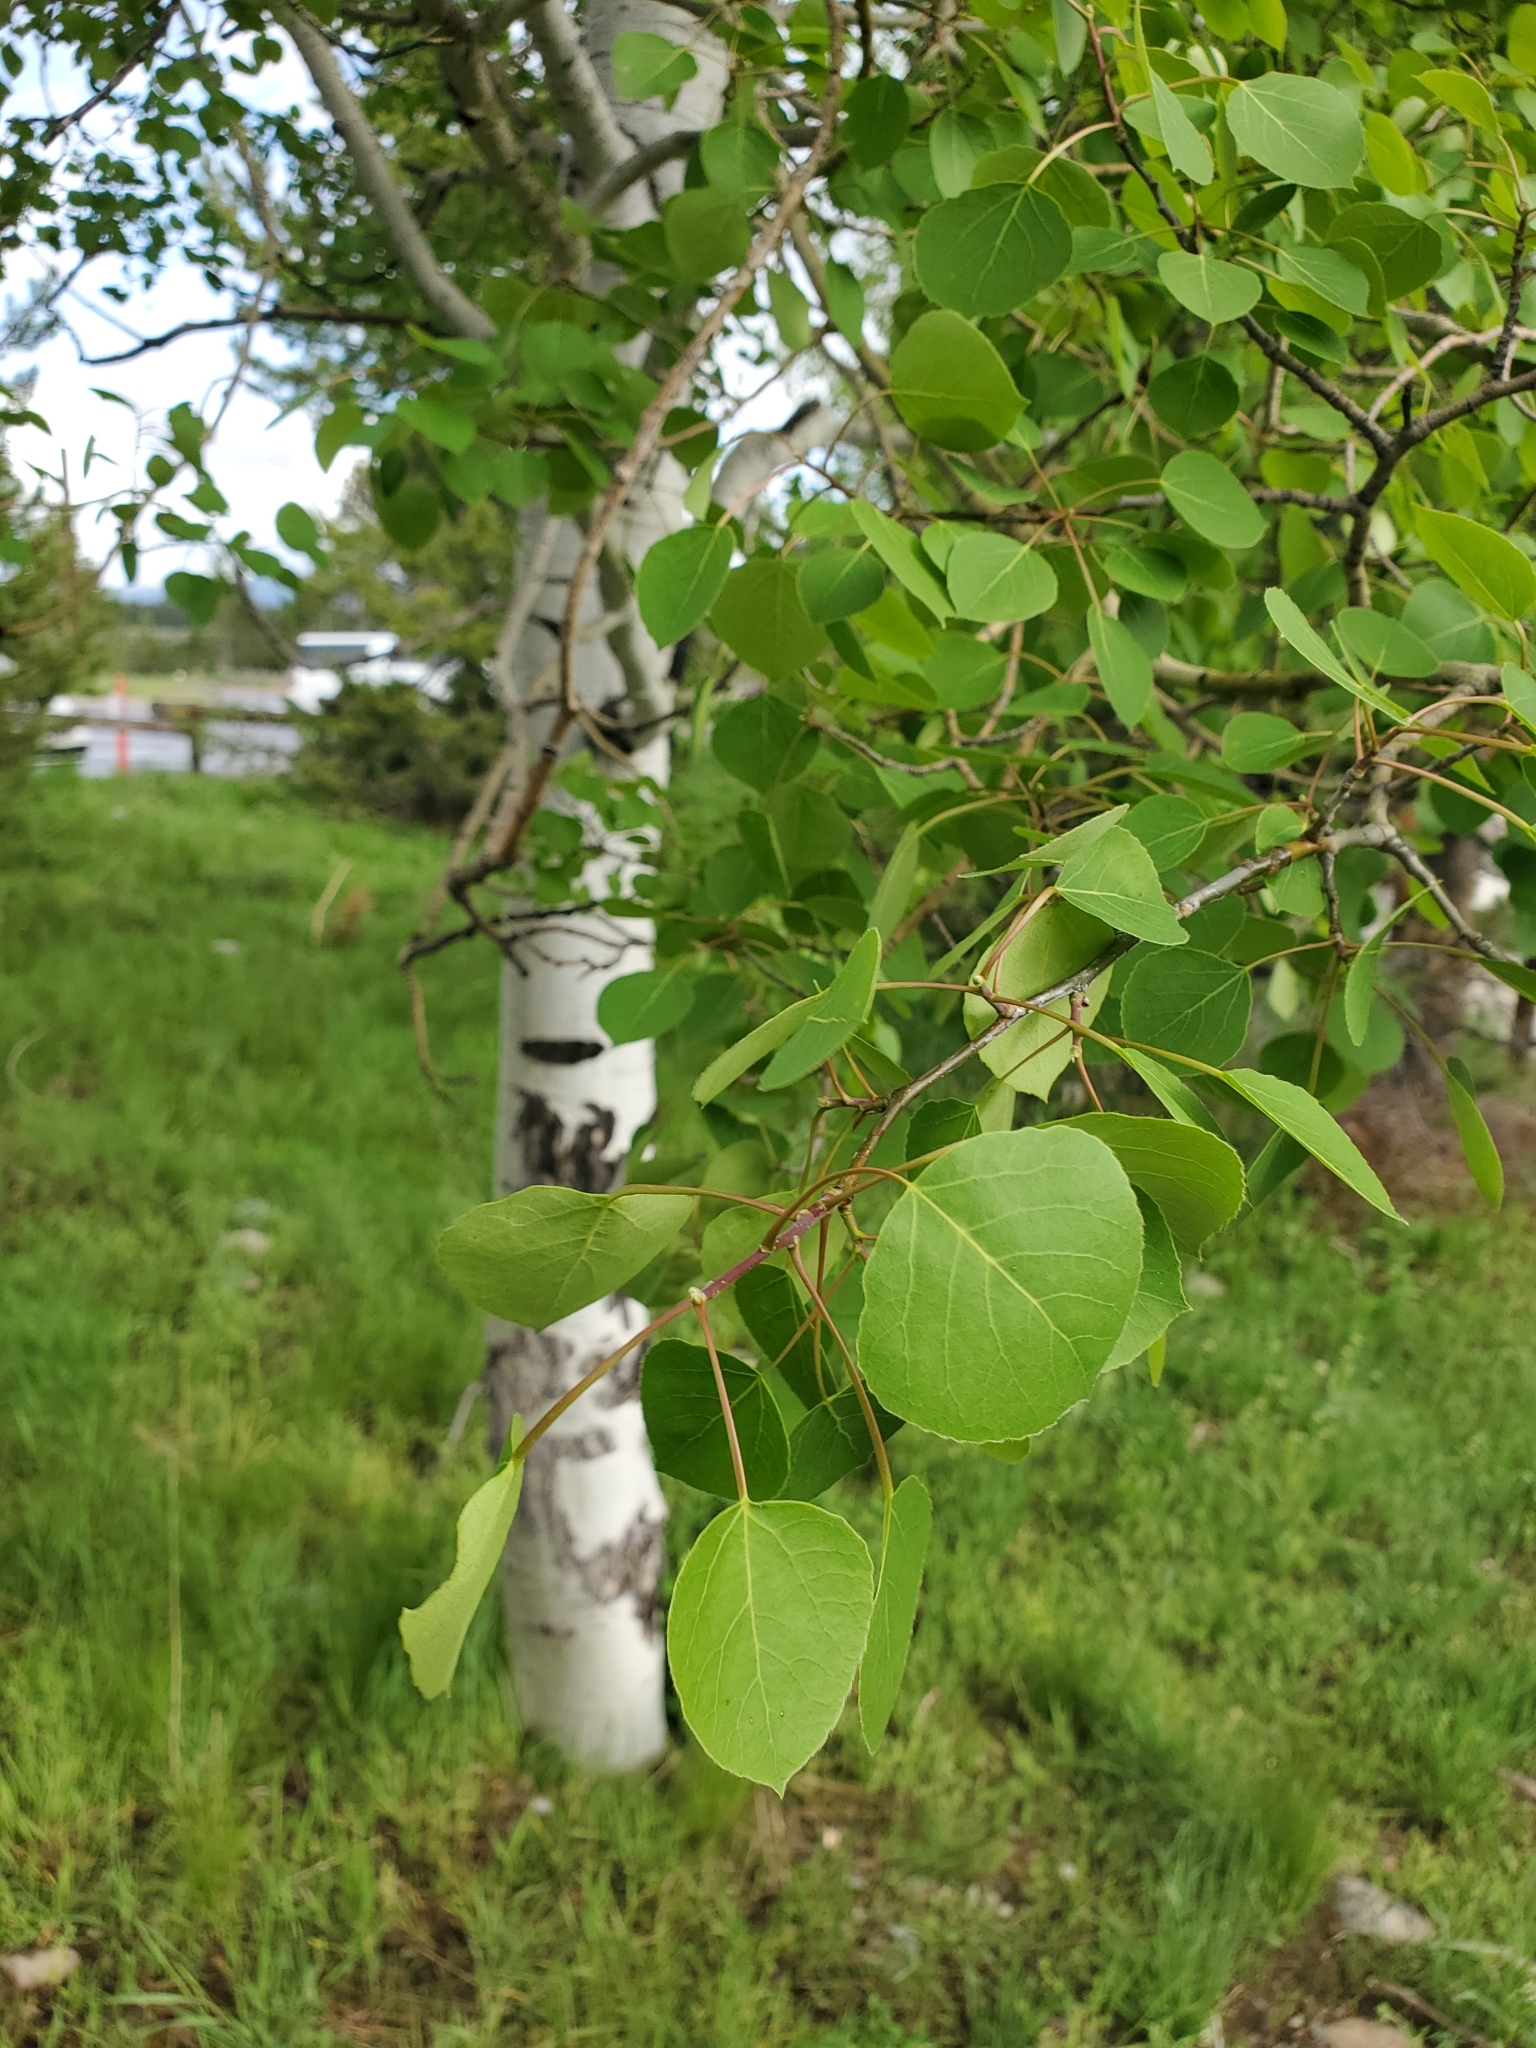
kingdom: Plantae
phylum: Tracheophyta
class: Magnoliopsida
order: Malpighiales
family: Salicaceae
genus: Populus
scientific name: Populus tremuloides
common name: Quaking aspen
